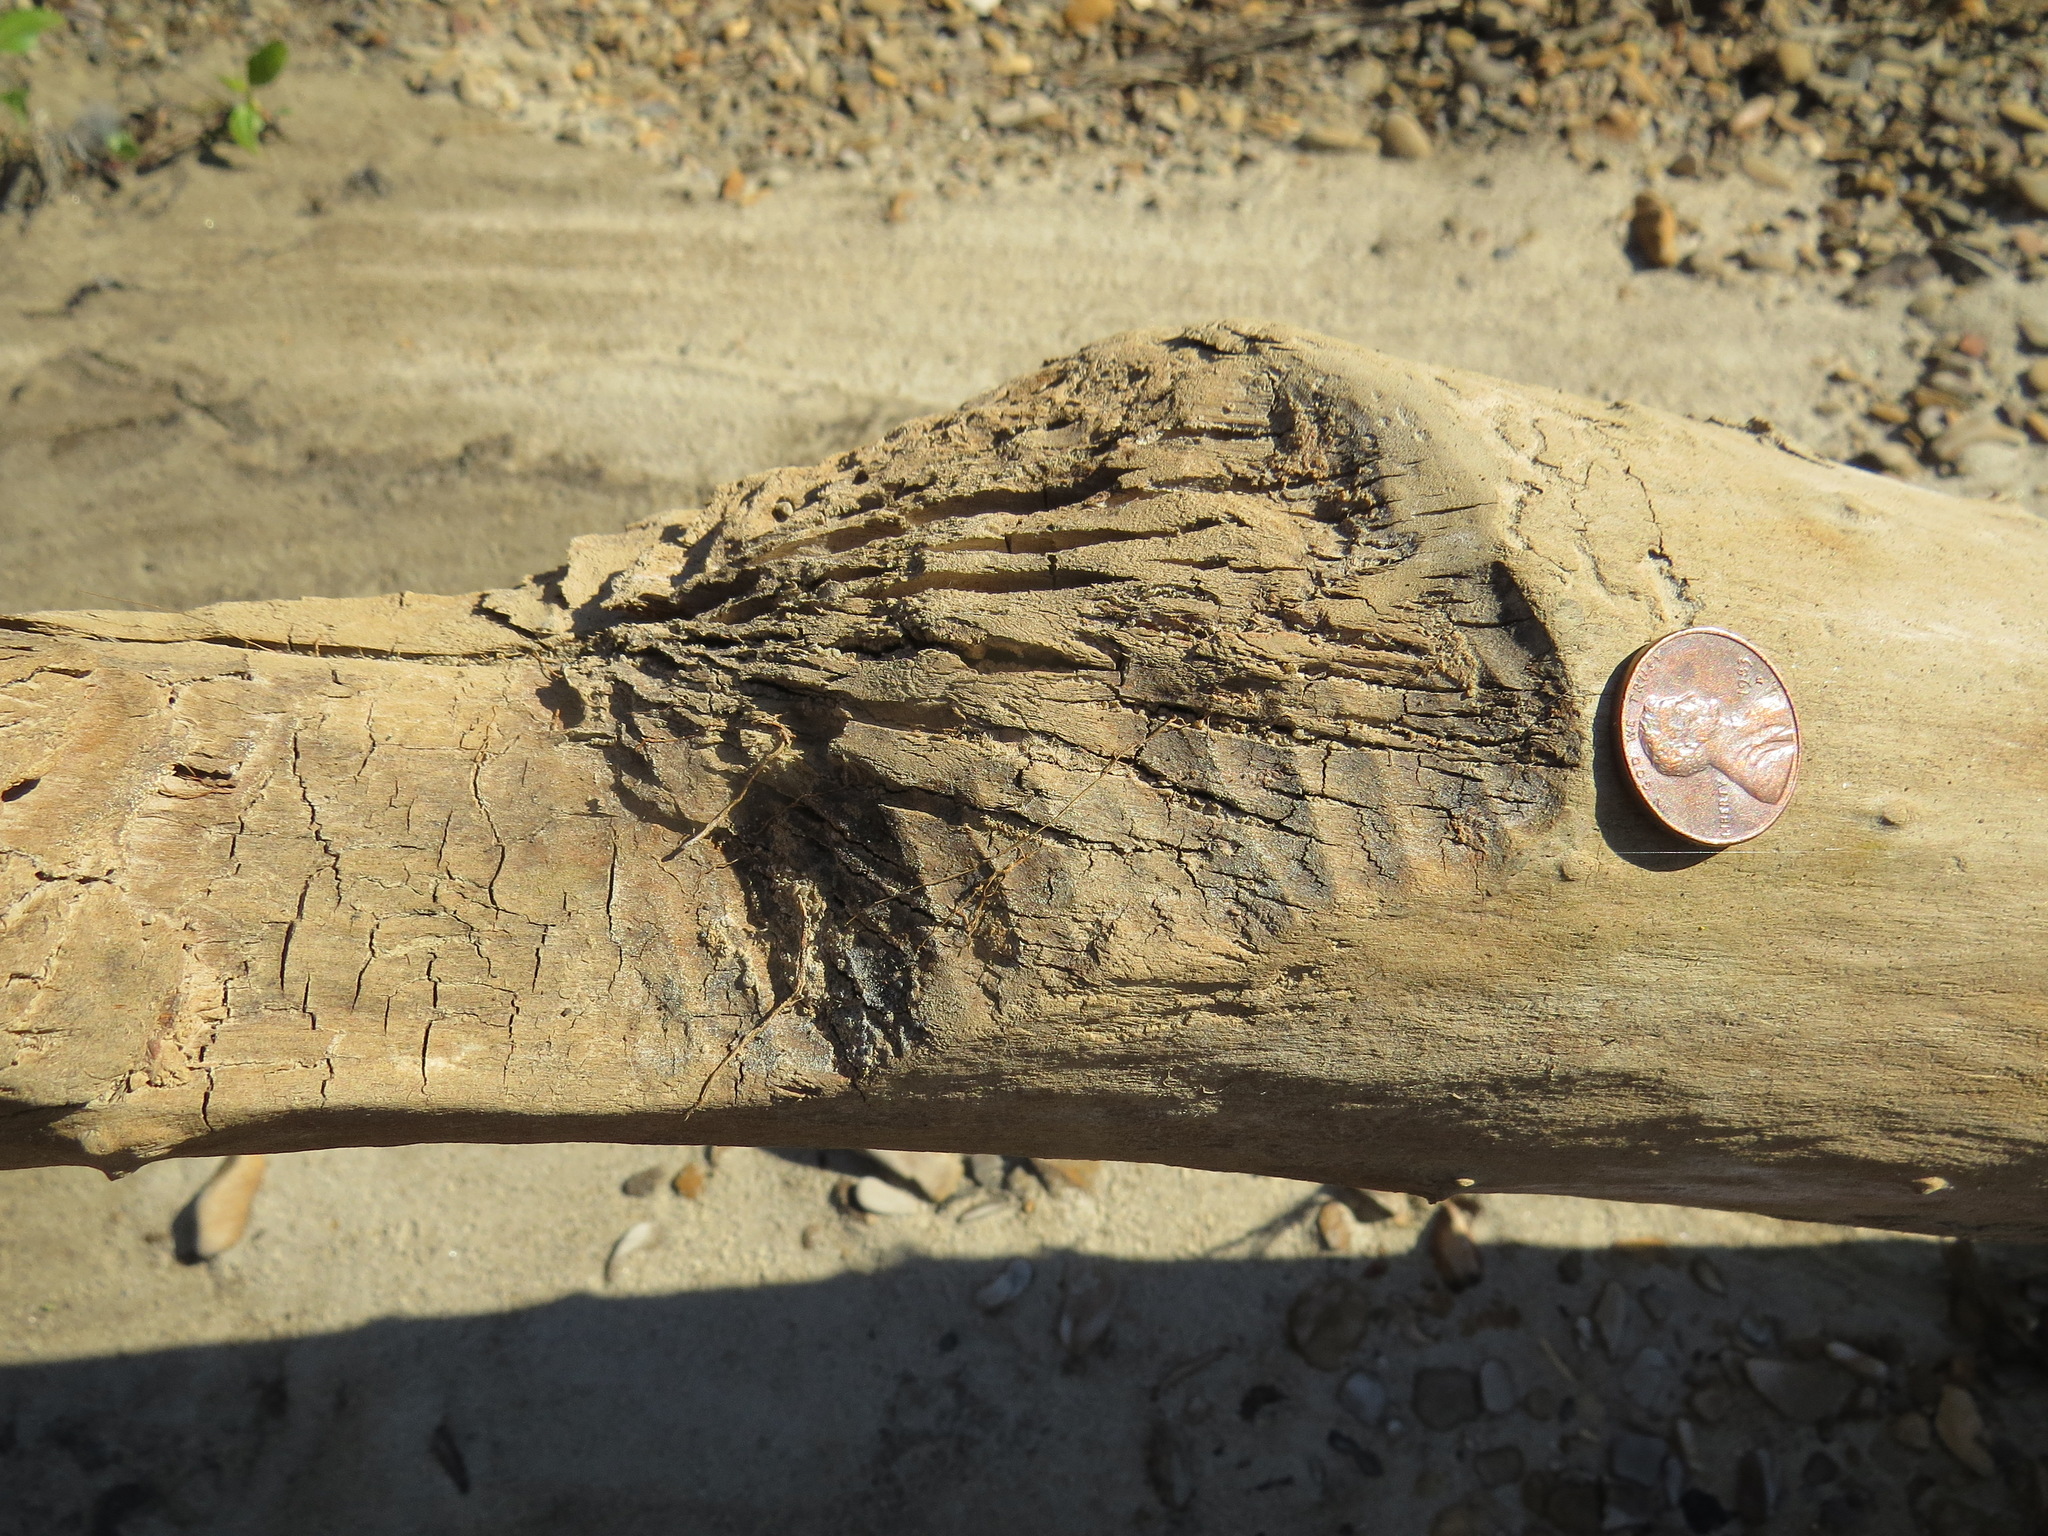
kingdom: Animalia
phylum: Chordata
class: Mammalia
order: Rodentia
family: Castoridae
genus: Castor
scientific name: Castor canadensis
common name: American beaver
